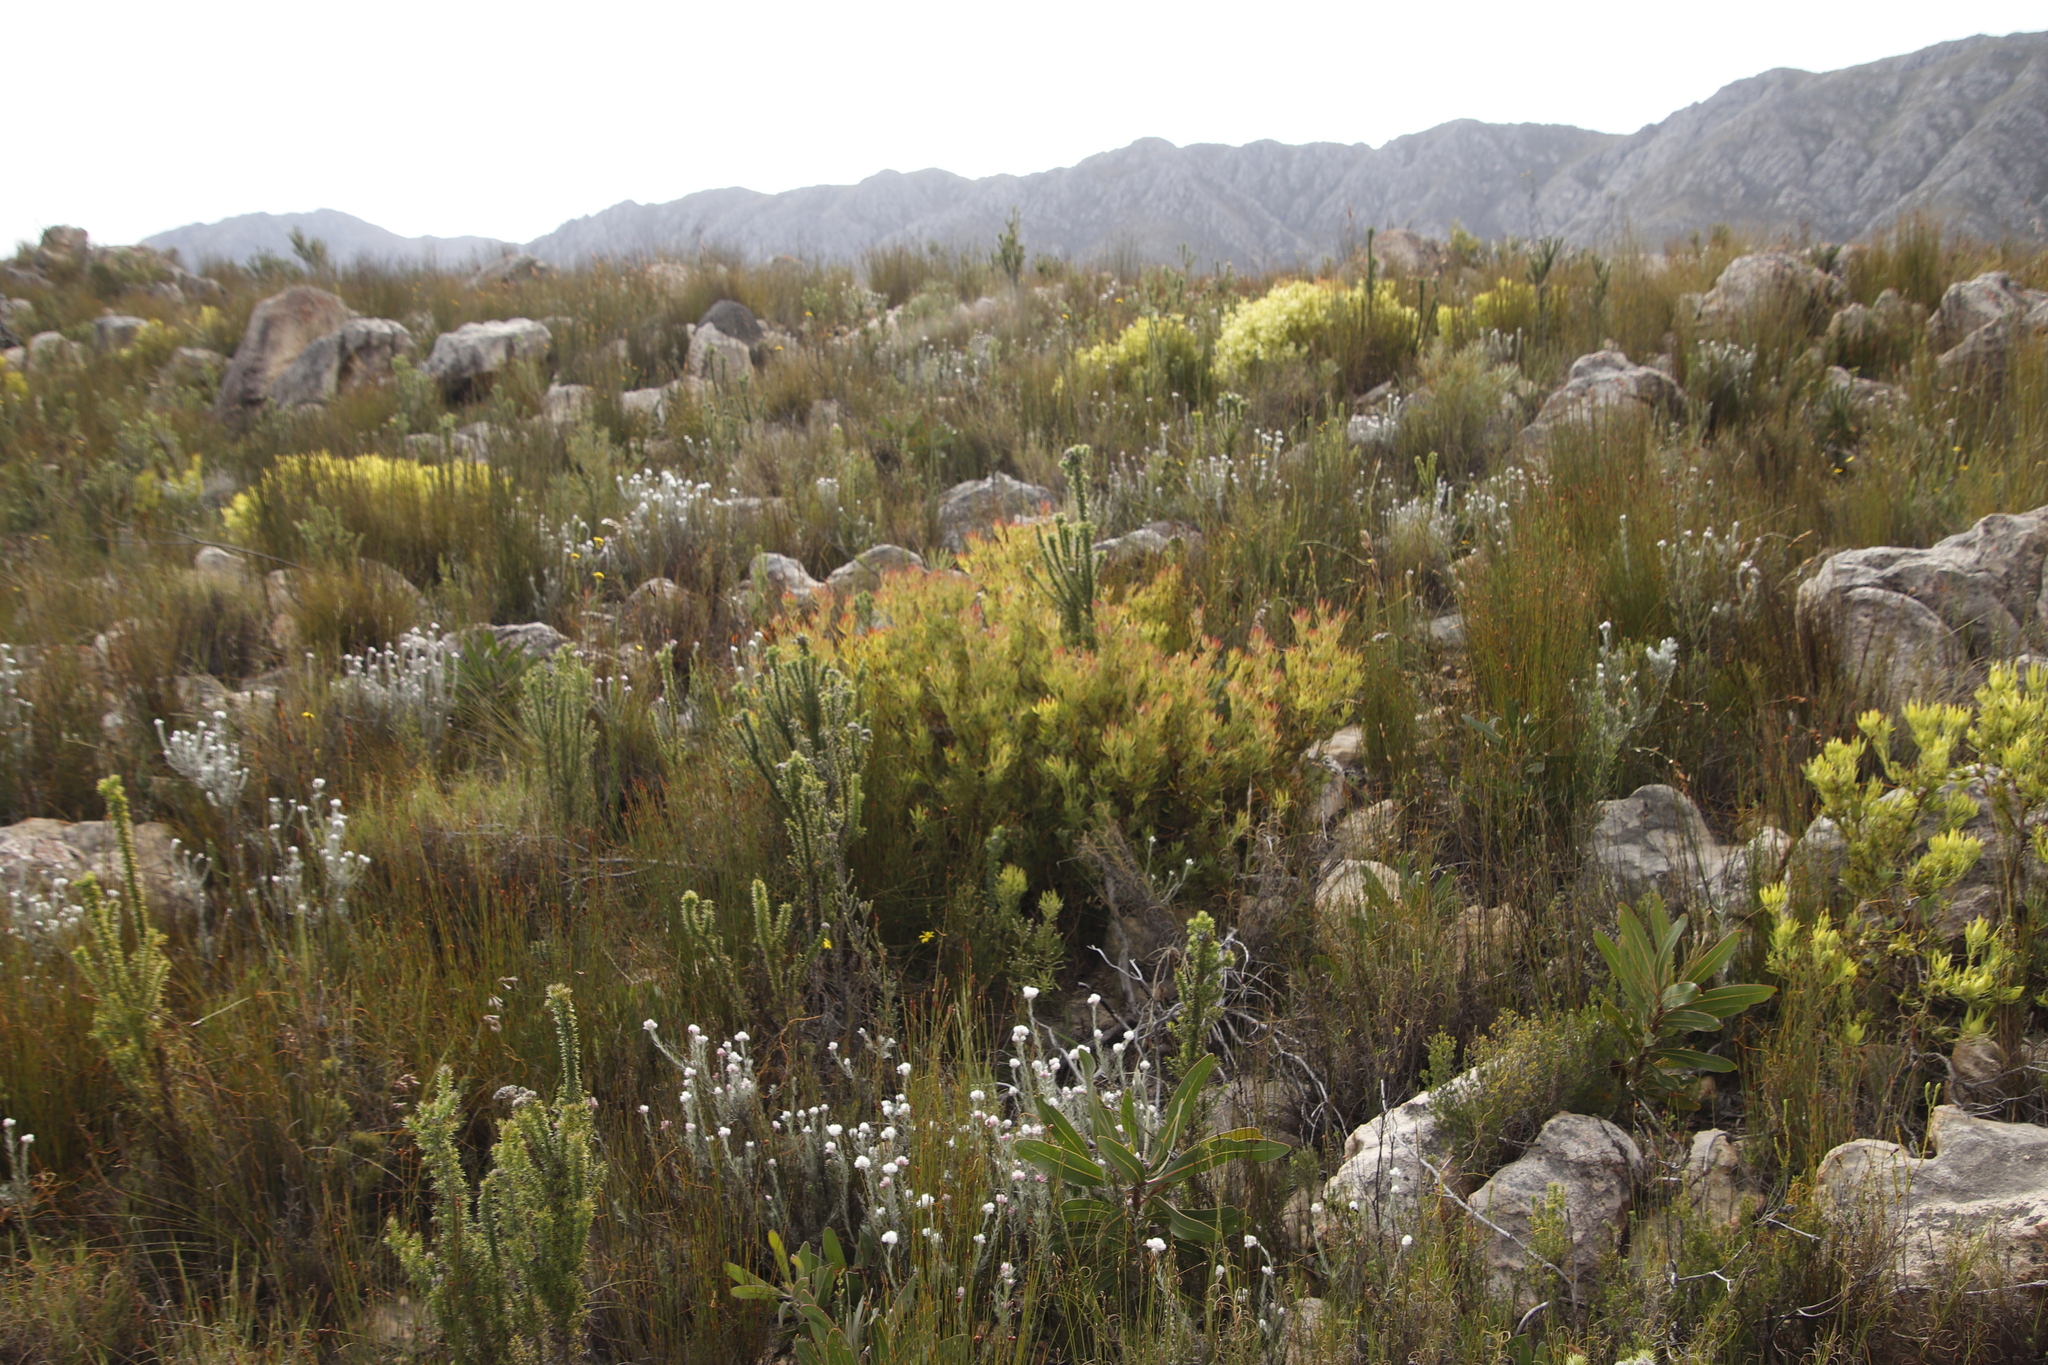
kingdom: Plantae
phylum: Tracheophyta
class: Magnoliopsida
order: Proteales
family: Proteaceae
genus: Leucadendron
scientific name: Leucadendron salignum
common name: Common sunshine conebush
